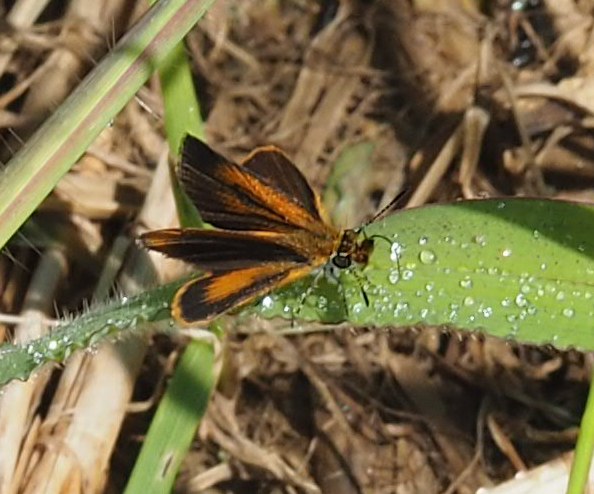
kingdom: Animalia
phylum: Arthropoda
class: Insecta
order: Lepidoptera
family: Hesperiidae
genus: Ancyloxypha
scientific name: Ancyloxypha numitor
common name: Least skipper
